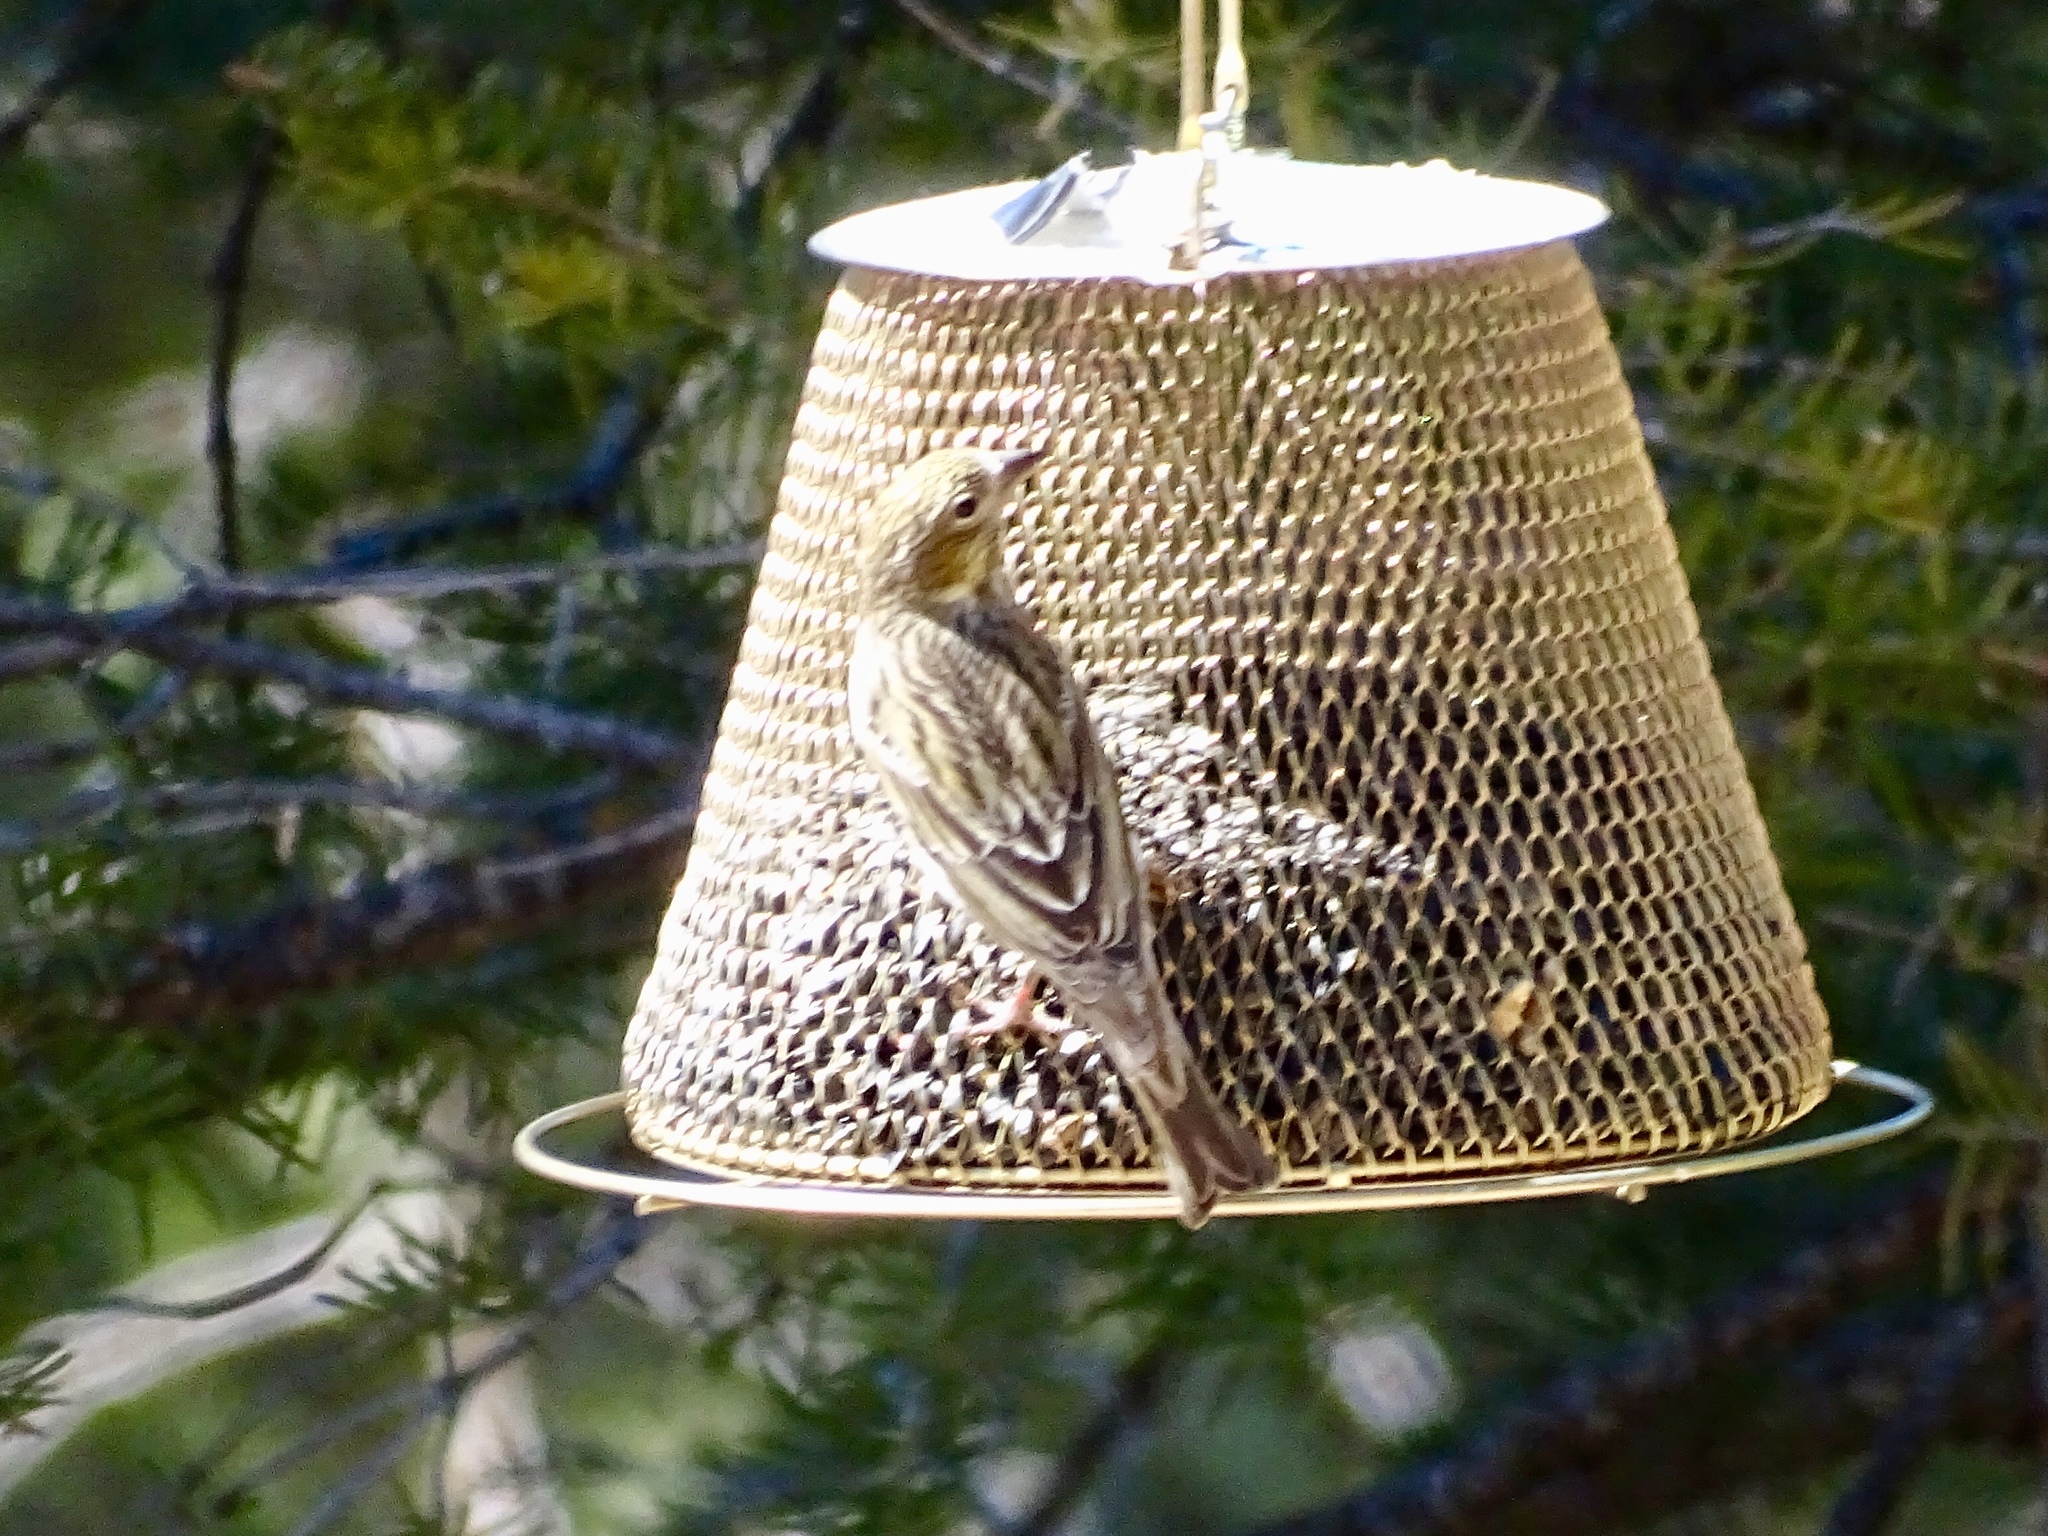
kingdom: Animalia
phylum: Chordata
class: Aves
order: Passeriformes
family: Fringillidae
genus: Spinus
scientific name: Spinus pinus
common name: Pine siskin
